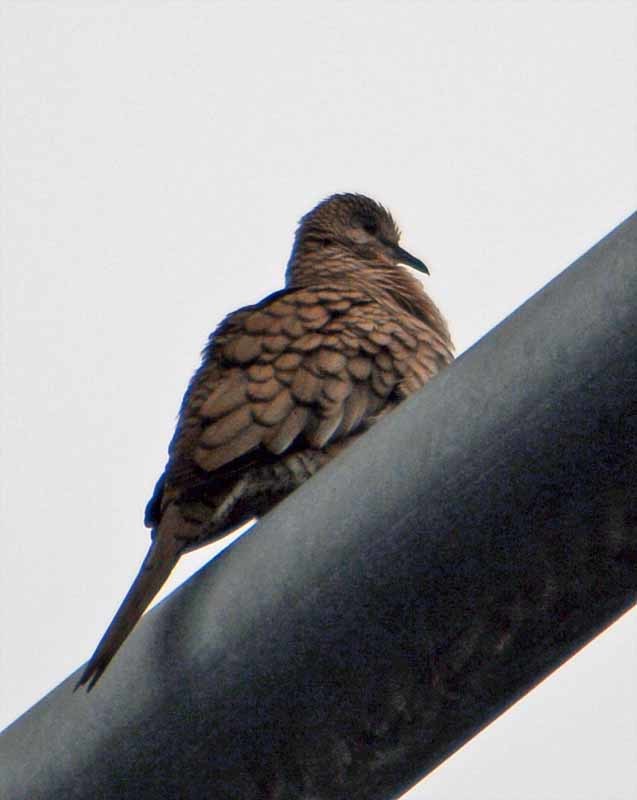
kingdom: Animalia
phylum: Chordata
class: Aves
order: Columbiformes
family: Columbidae
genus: Columbina
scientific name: Columbina inca
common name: Inca dove
